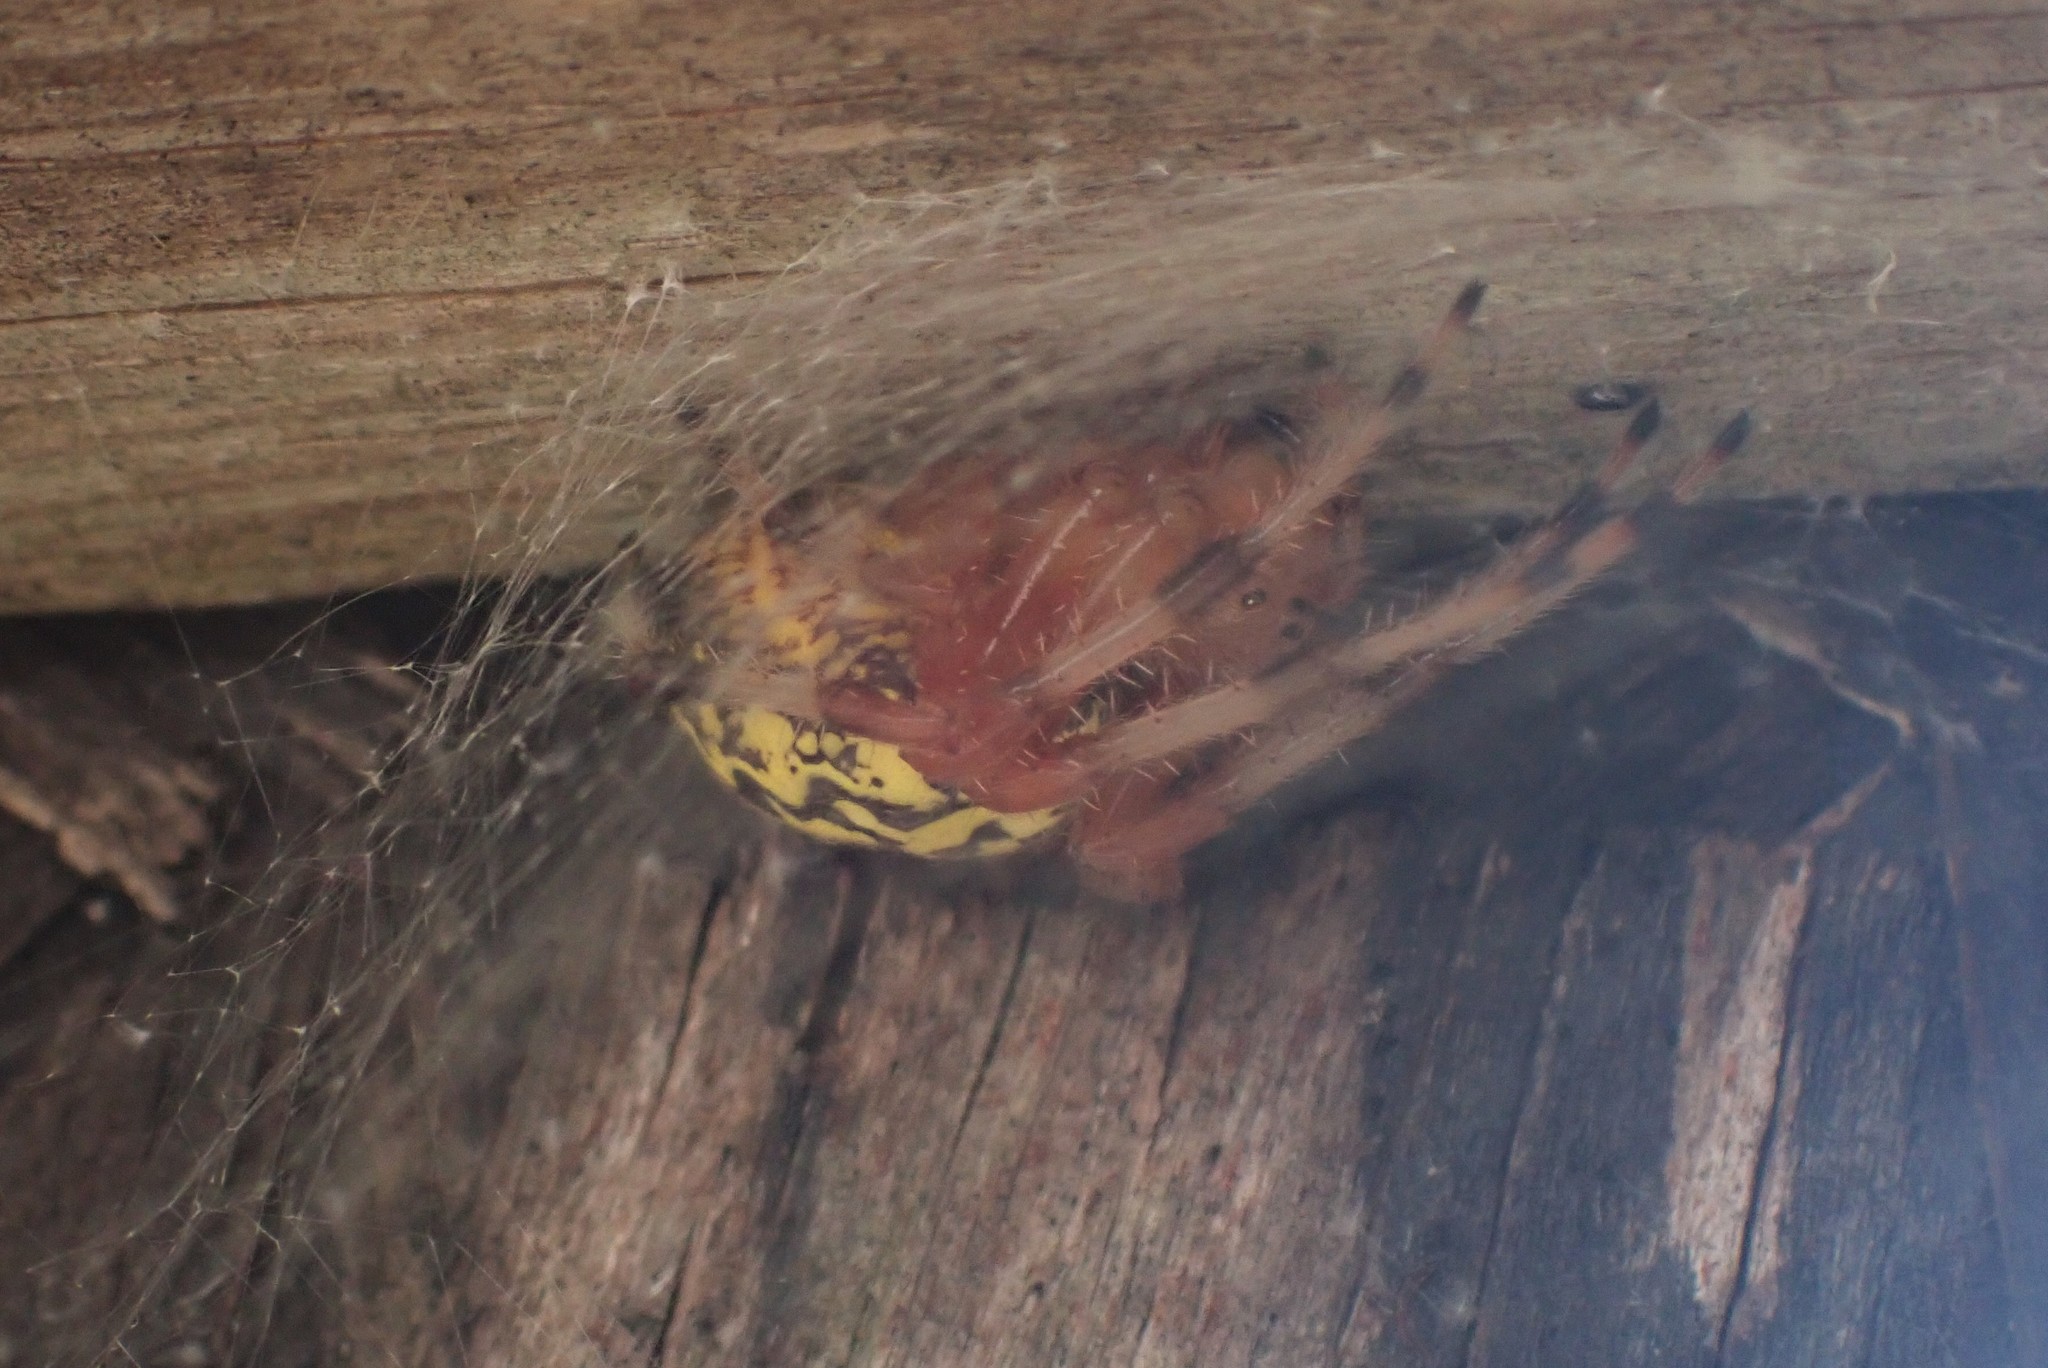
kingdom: Animalia
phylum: Arthropoda
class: Arachnida
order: Araneae
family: Araneidae
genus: Araneus
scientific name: Araneus marmoreus
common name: Marbled orbweaver
